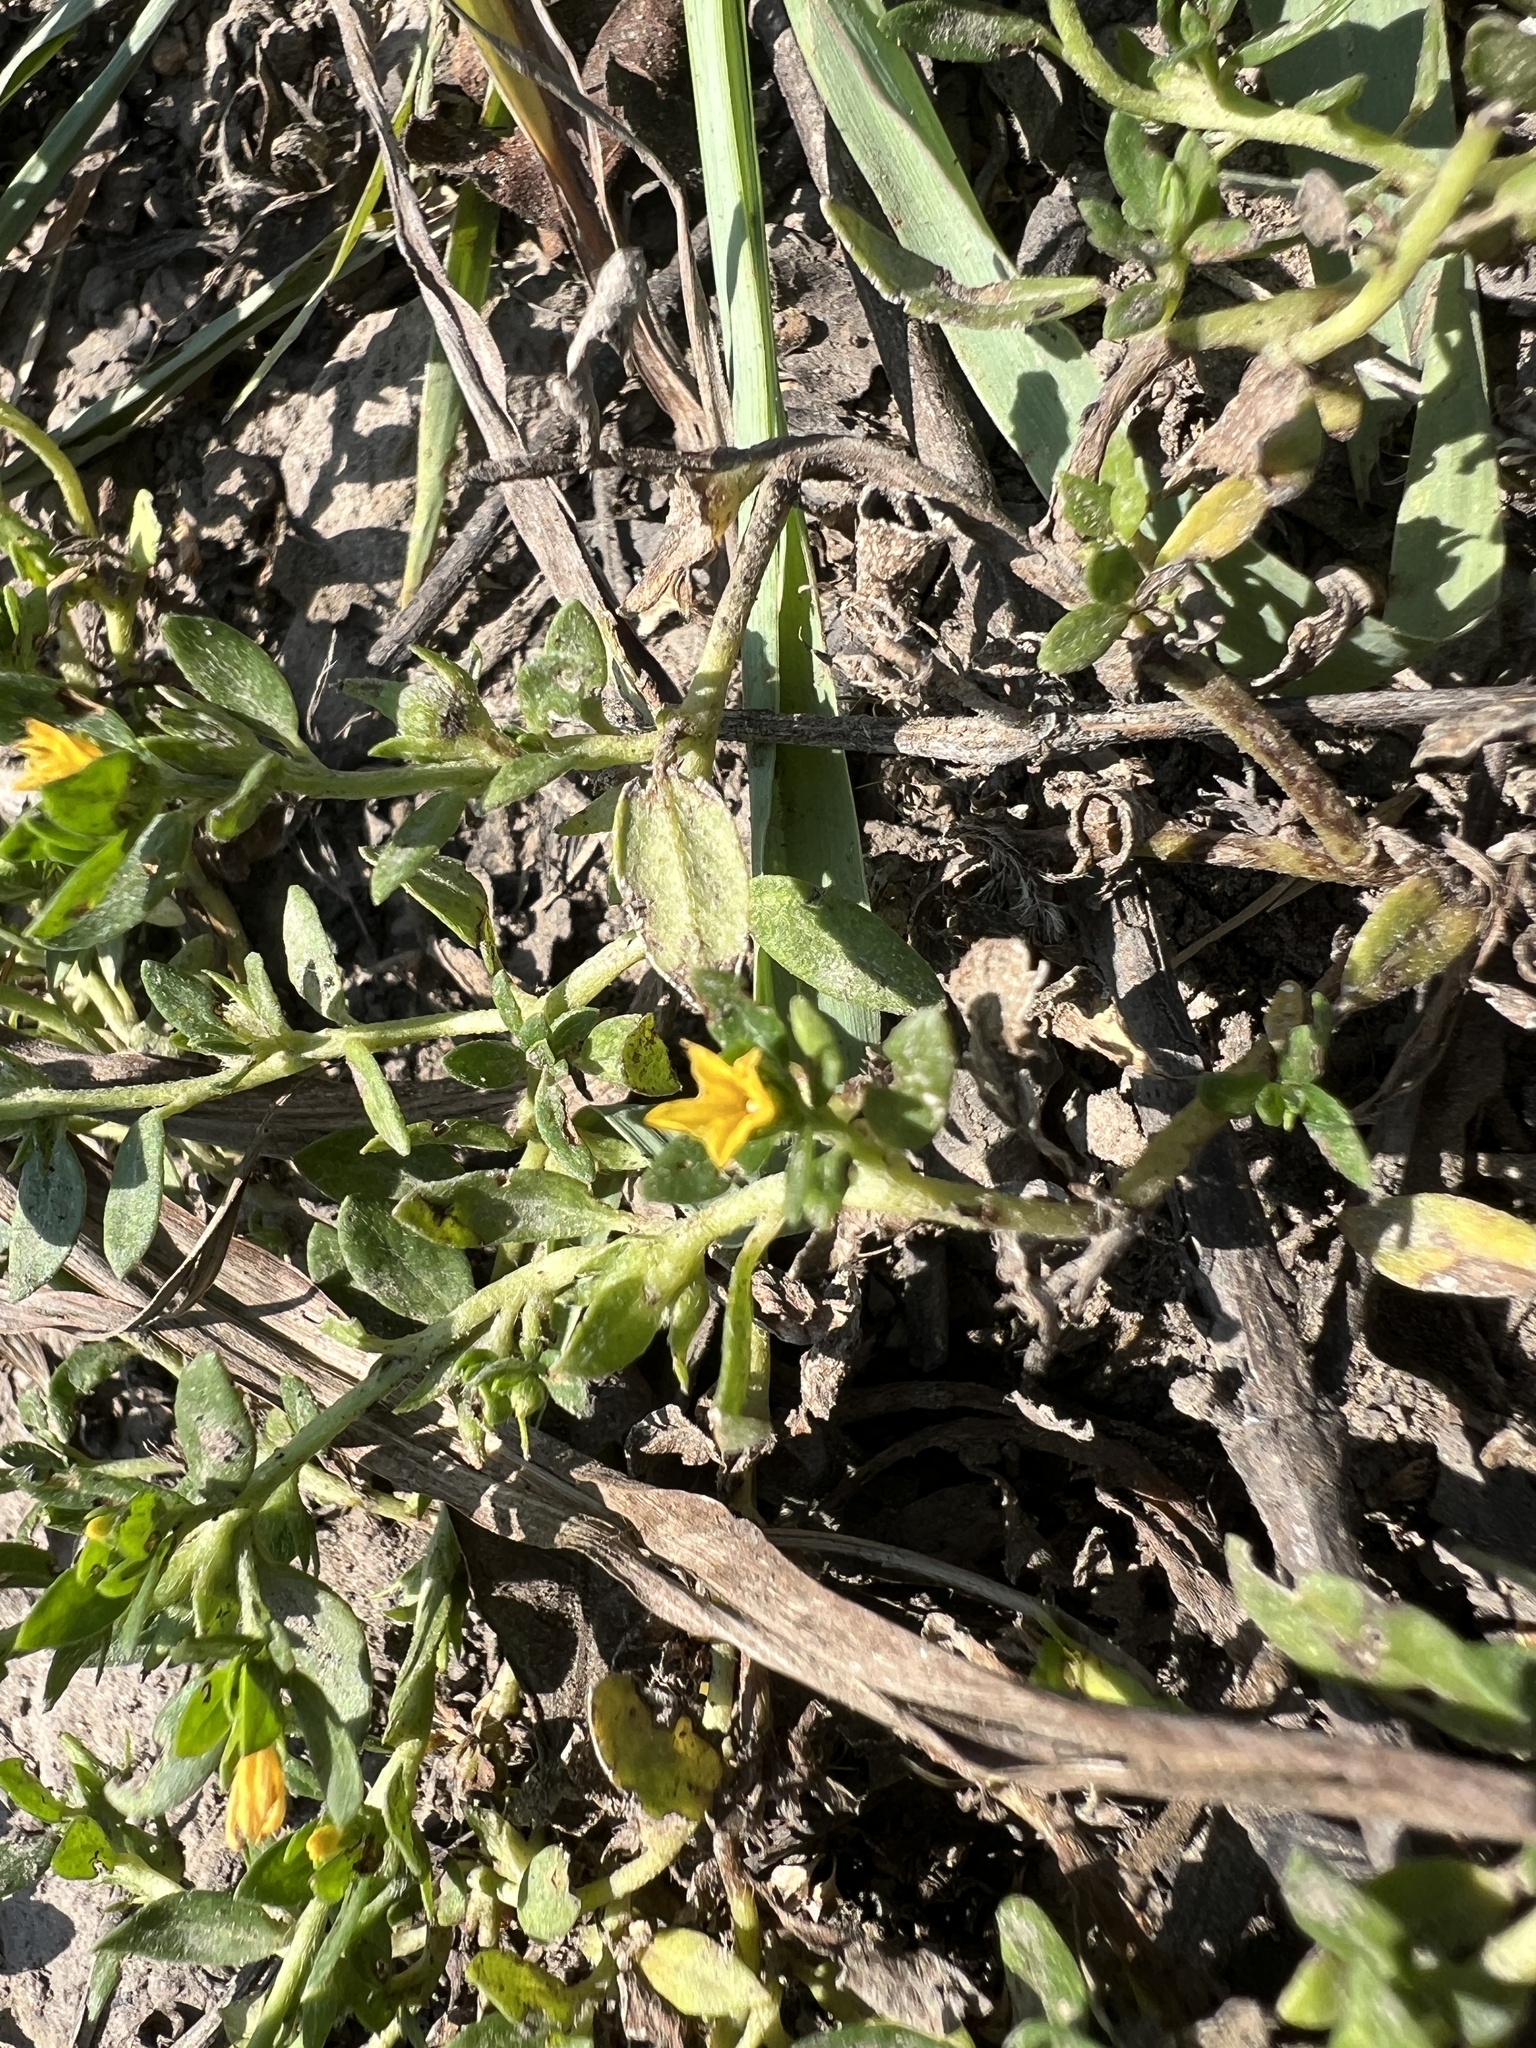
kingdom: Plantae
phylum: Tracheophyta
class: Magnoliopsida
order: Boraginales
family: Heliotropiaceae
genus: Euploca
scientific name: Euploca baclei
